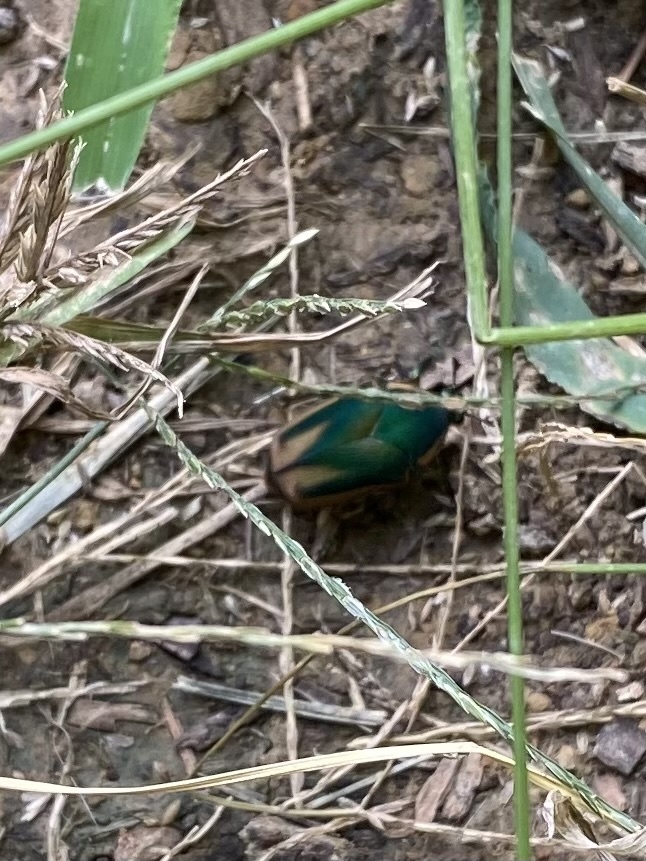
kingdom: Animalia
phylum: Arthropoda
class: Insecta
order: Coleoptera
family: Scarabaeidae
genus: Cotinis
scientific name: Cotinis nitida
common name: Common green june beetle
